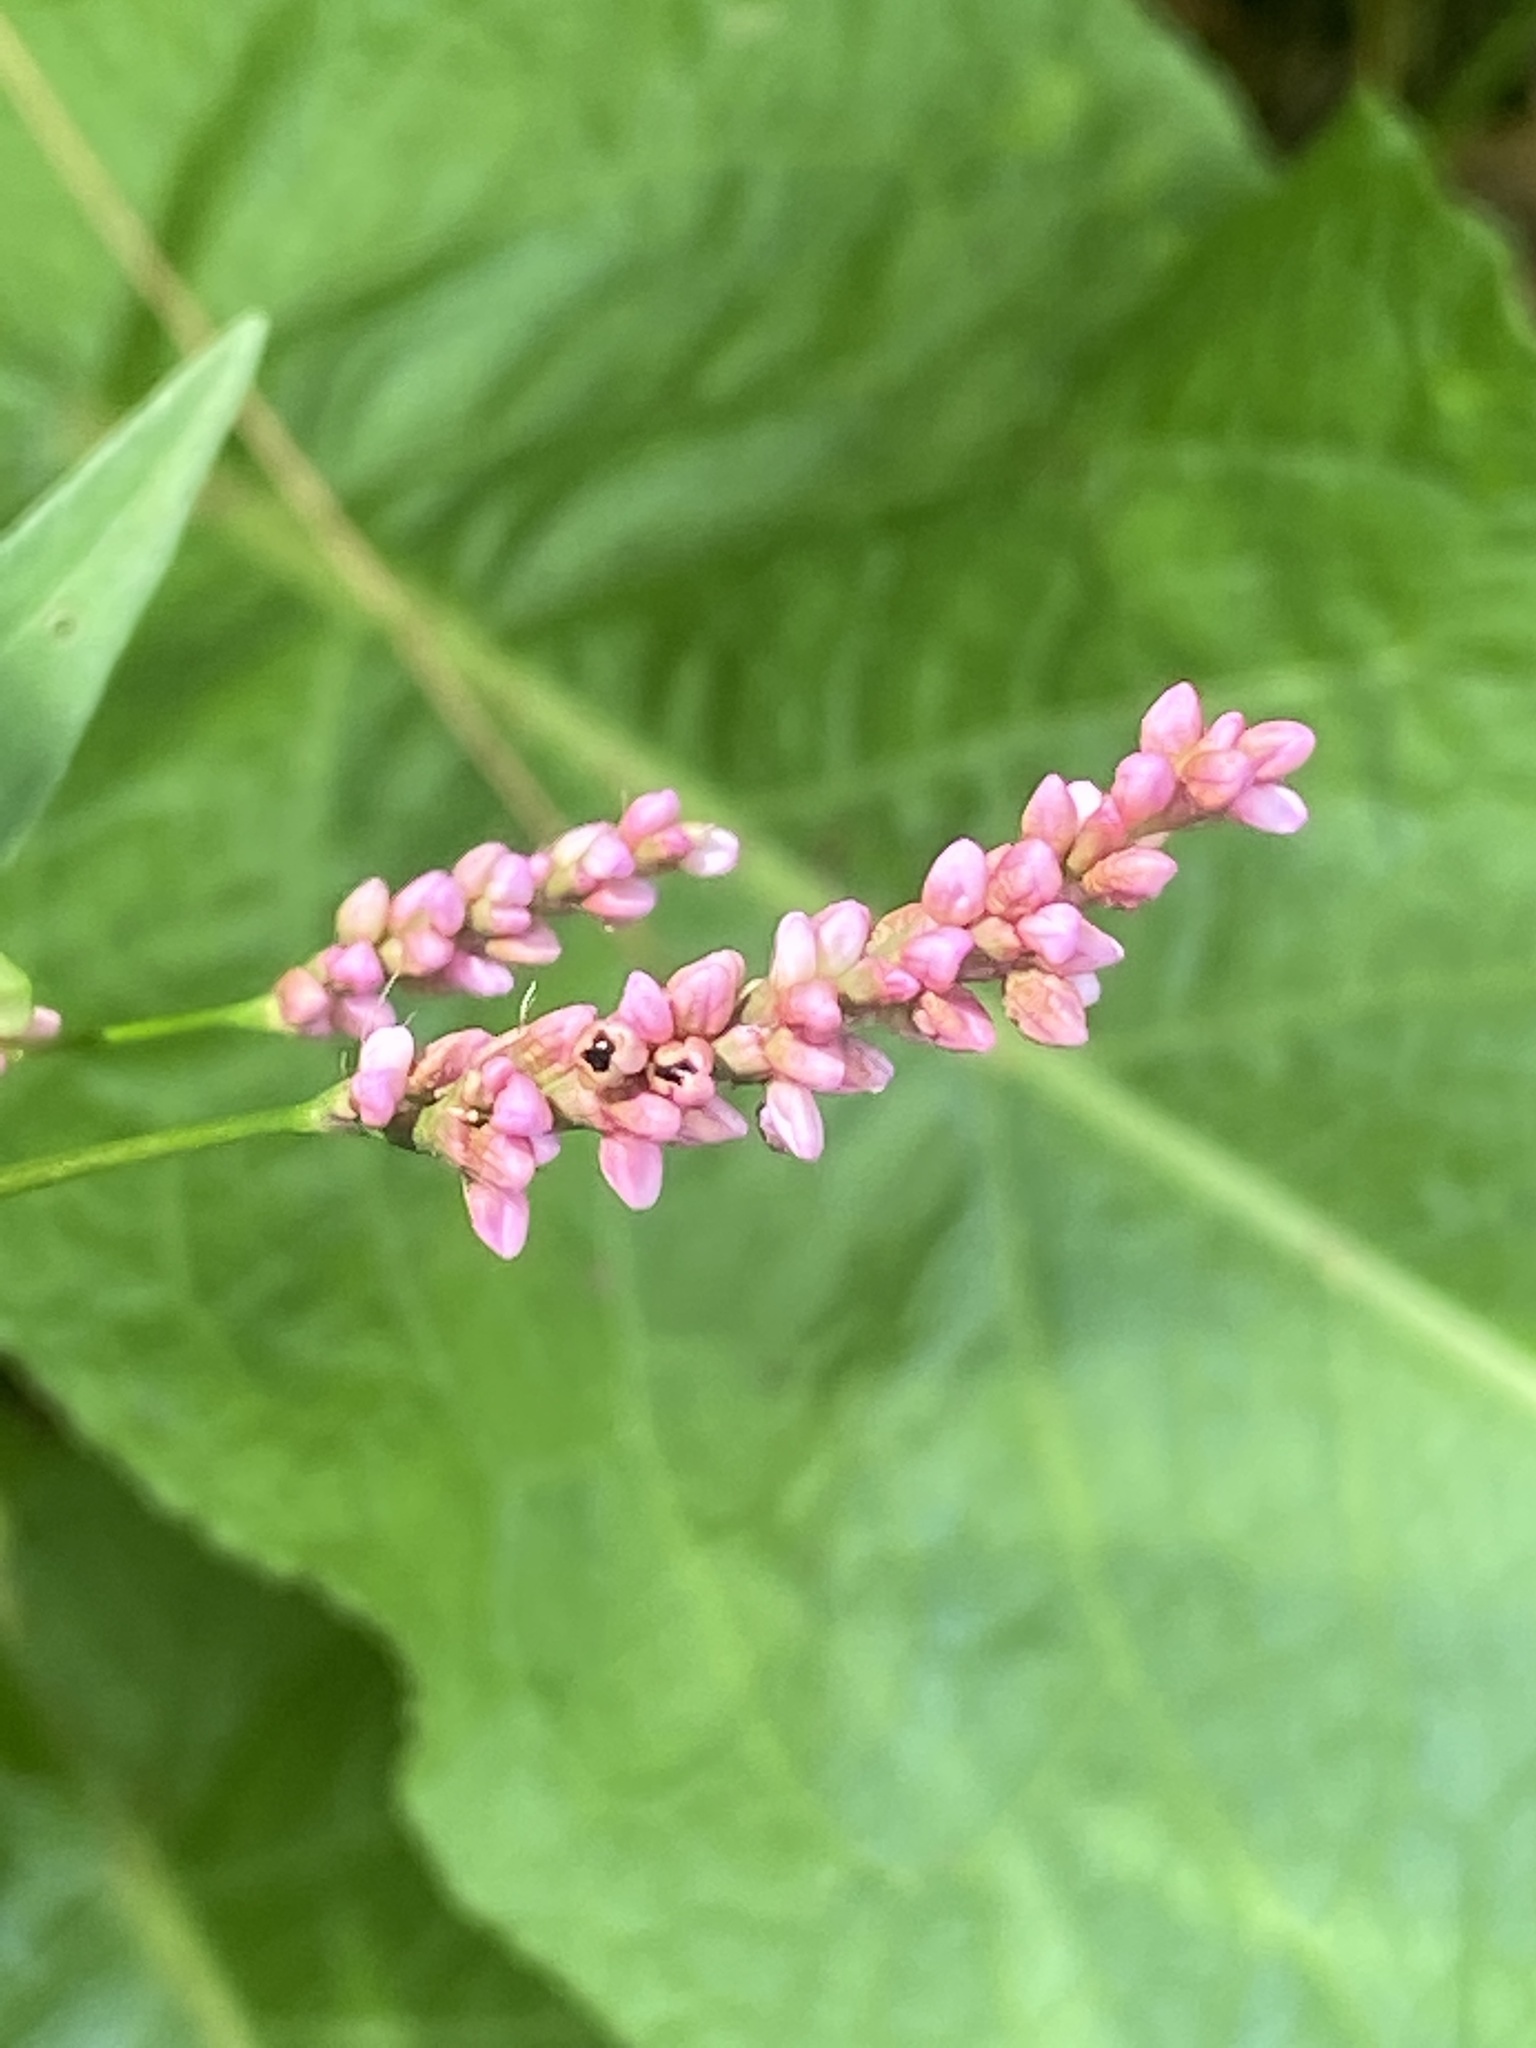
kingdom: Plantae
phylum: Tracheophyta
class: Magnoliopsida
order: Caryophyllales
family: Polygonaceae
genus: Persicaria
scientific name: Persicaria longiseta
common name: Bristly lady's-thumb
